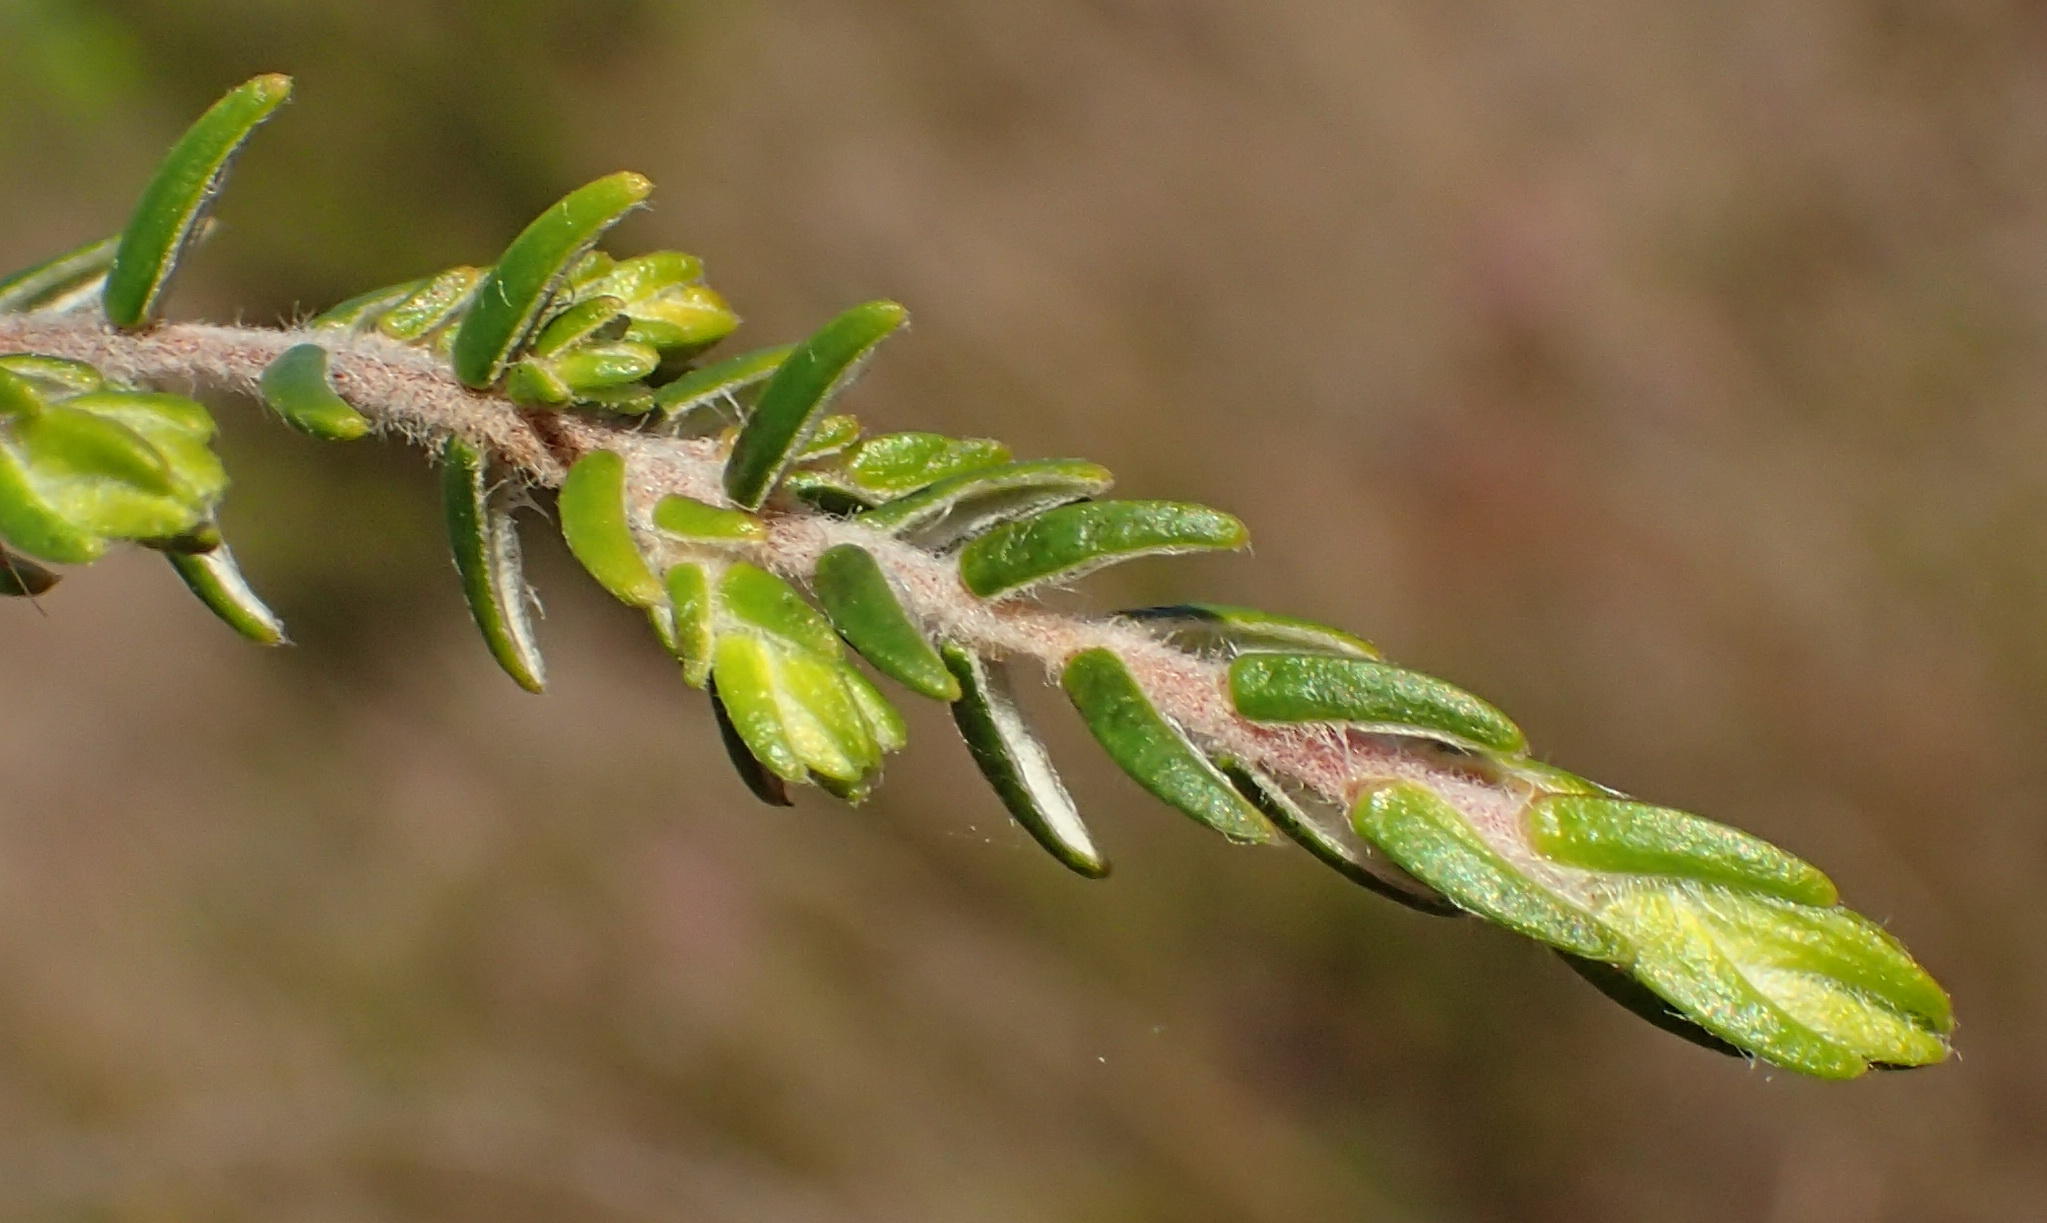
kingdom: Plantae
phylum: Tracheophyta
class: Magnoliopsida
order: Malvales
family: Thymelaeaceae
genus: Passerina
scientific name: Passerina falcifolia
